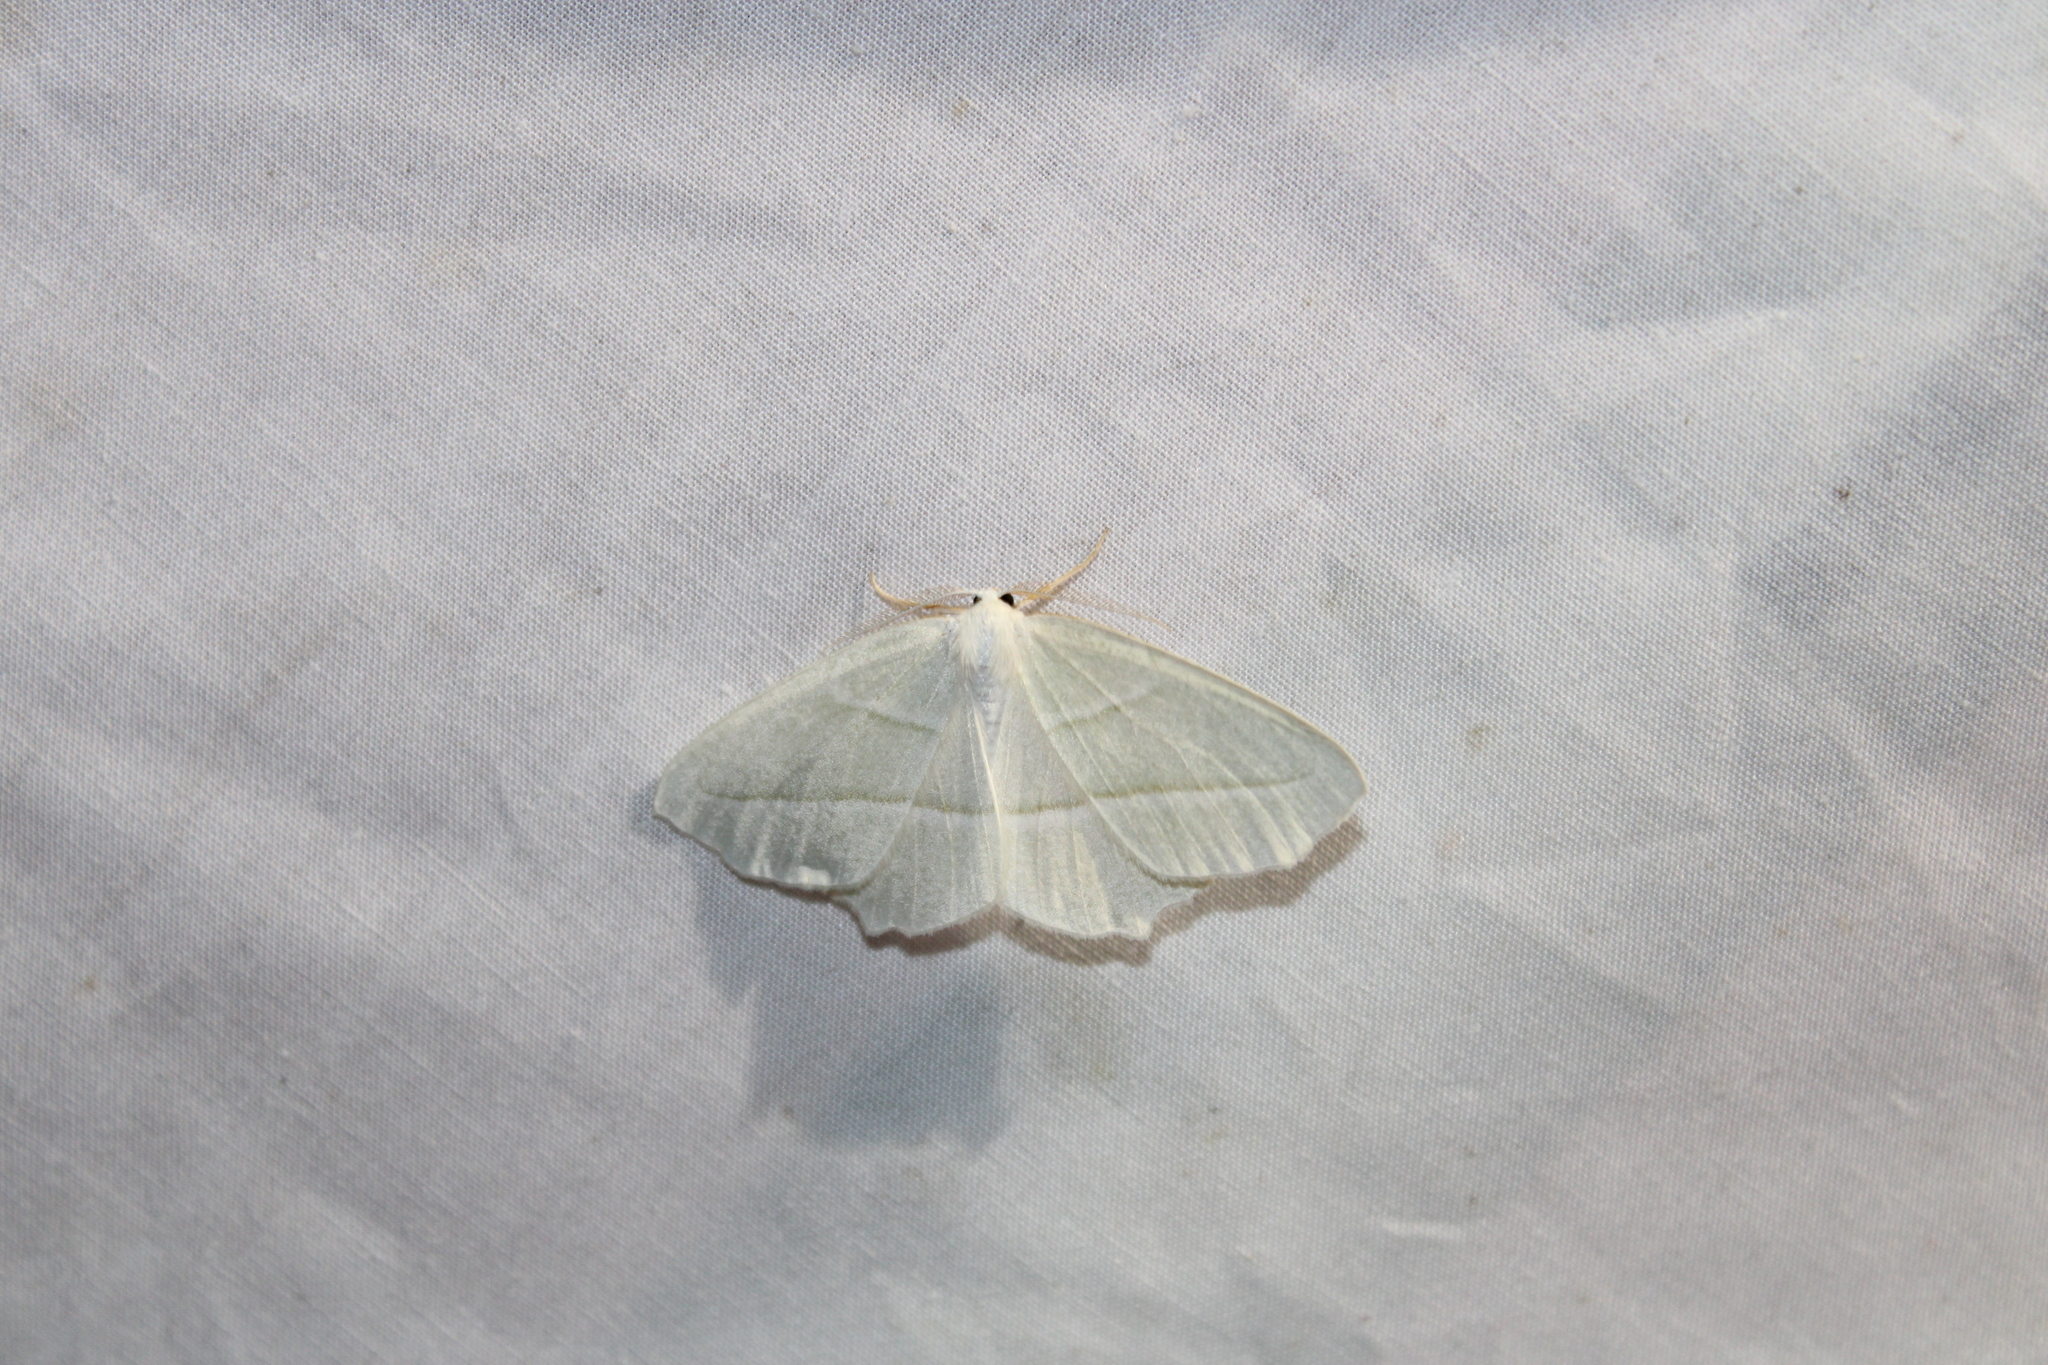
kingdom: Animalia
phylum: Arthropoda
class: Insecta
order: Lepidoptera
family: Geometridae
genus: Campaea
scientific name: Campaea perlata
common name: Fringed looper
